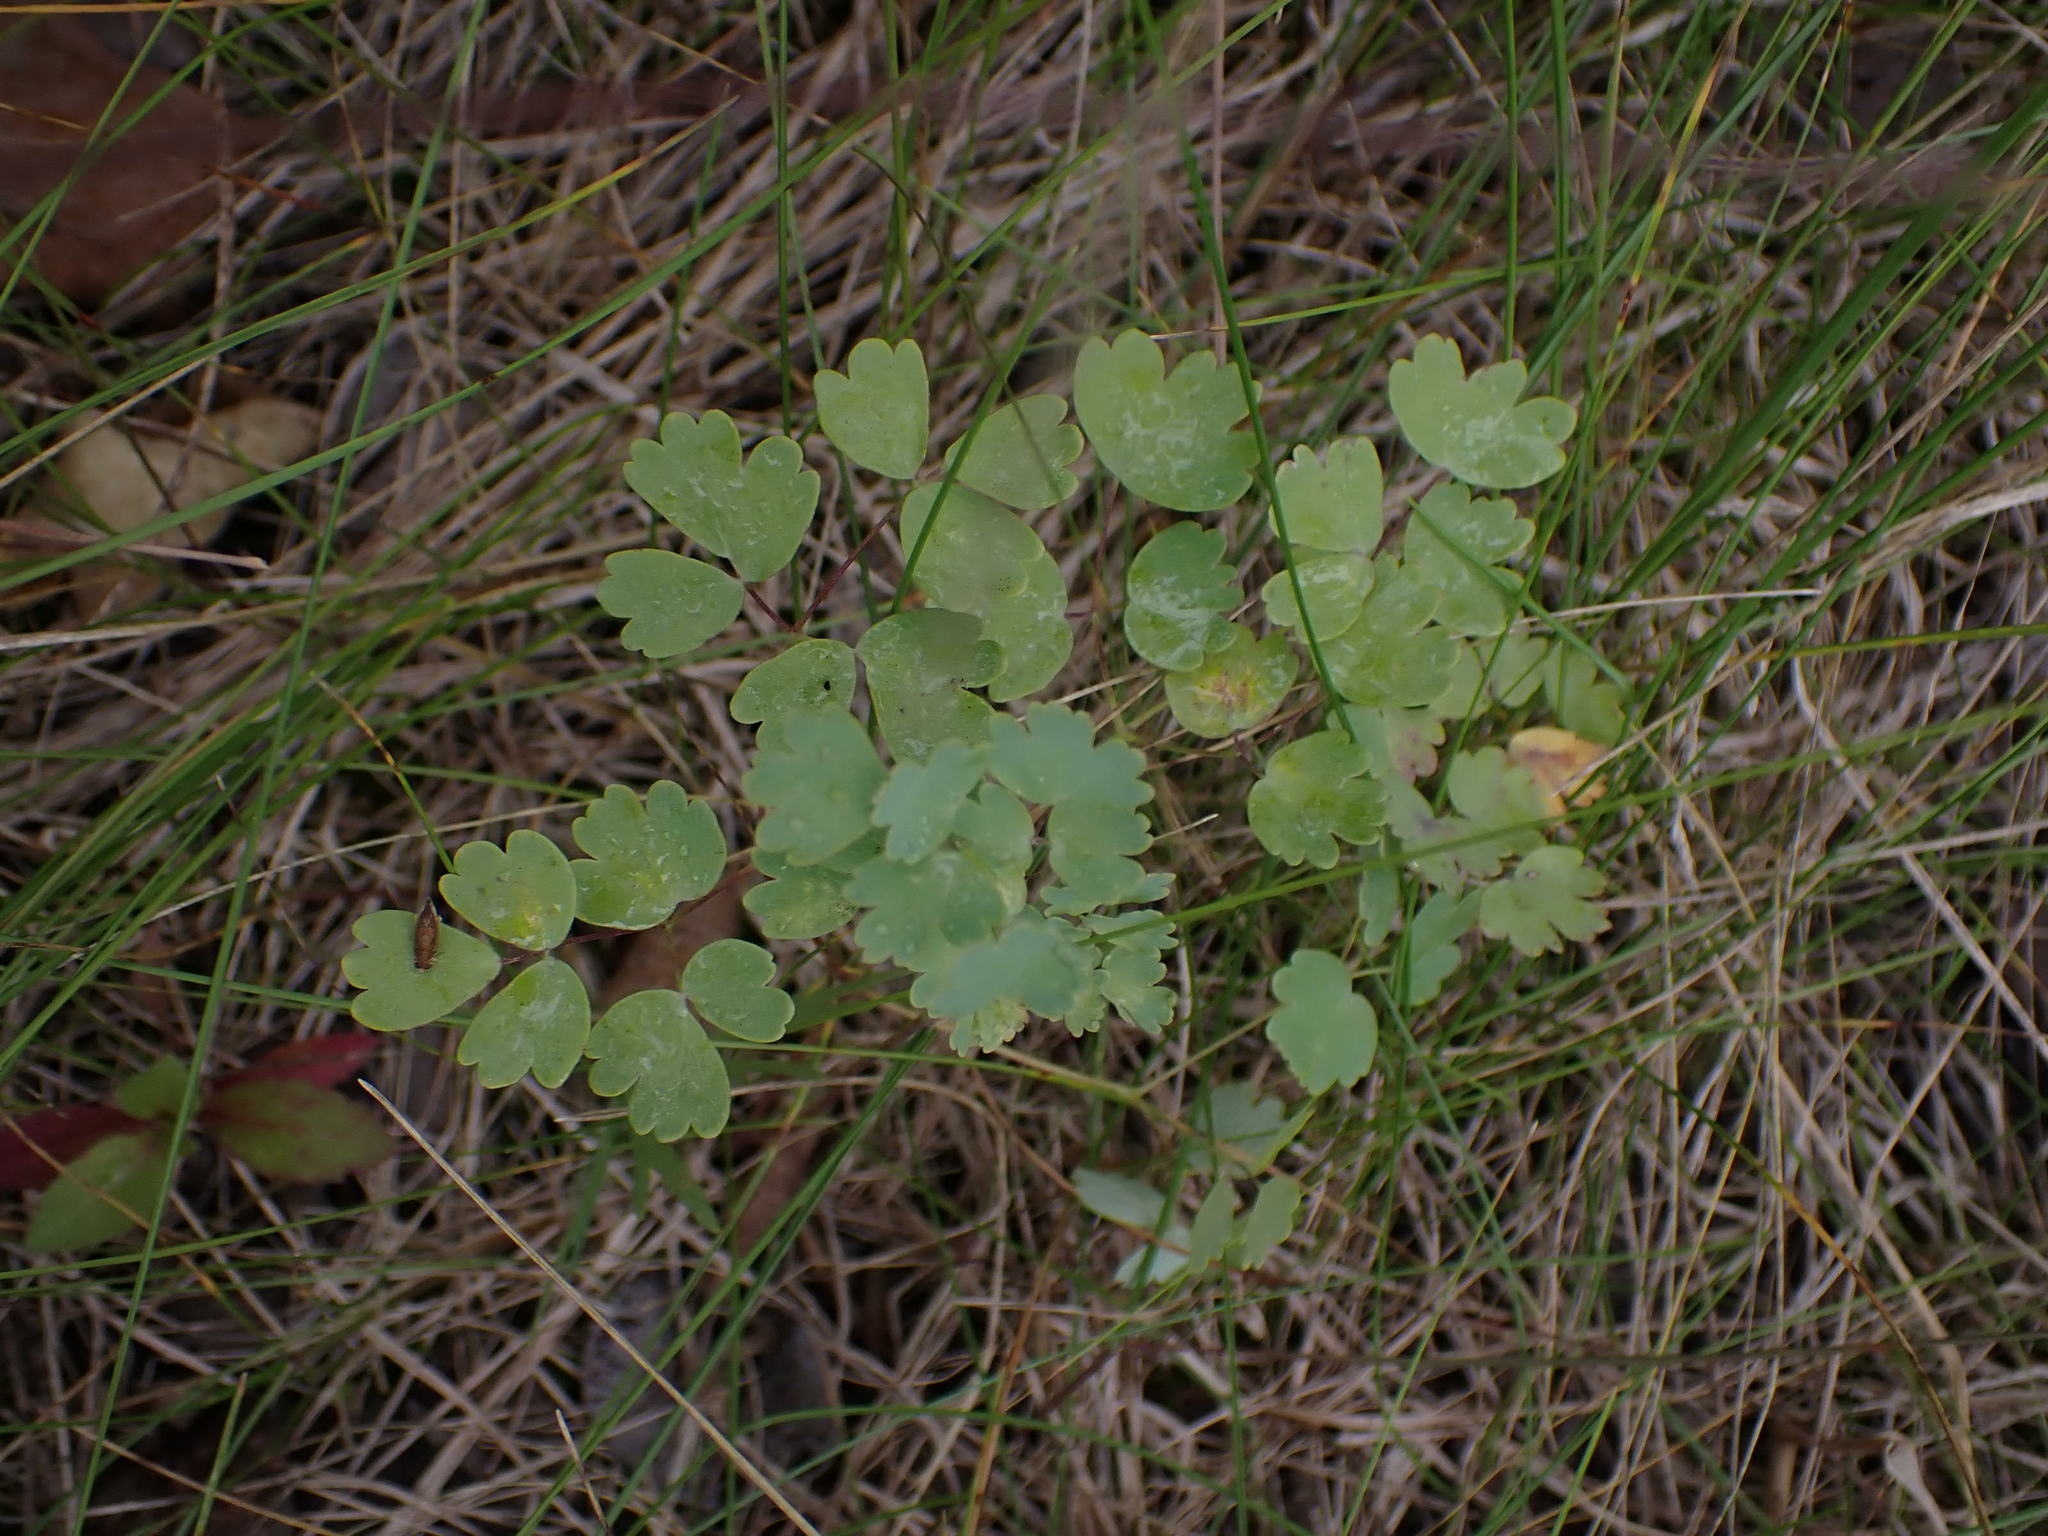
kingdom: Plantae
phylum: Tracheophyta
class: Magnoliopsida
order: Ranunculales
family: Ranunculaceae
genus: Thalictrum
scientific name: Thalictrum venulosum
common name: Early meadow-rue
